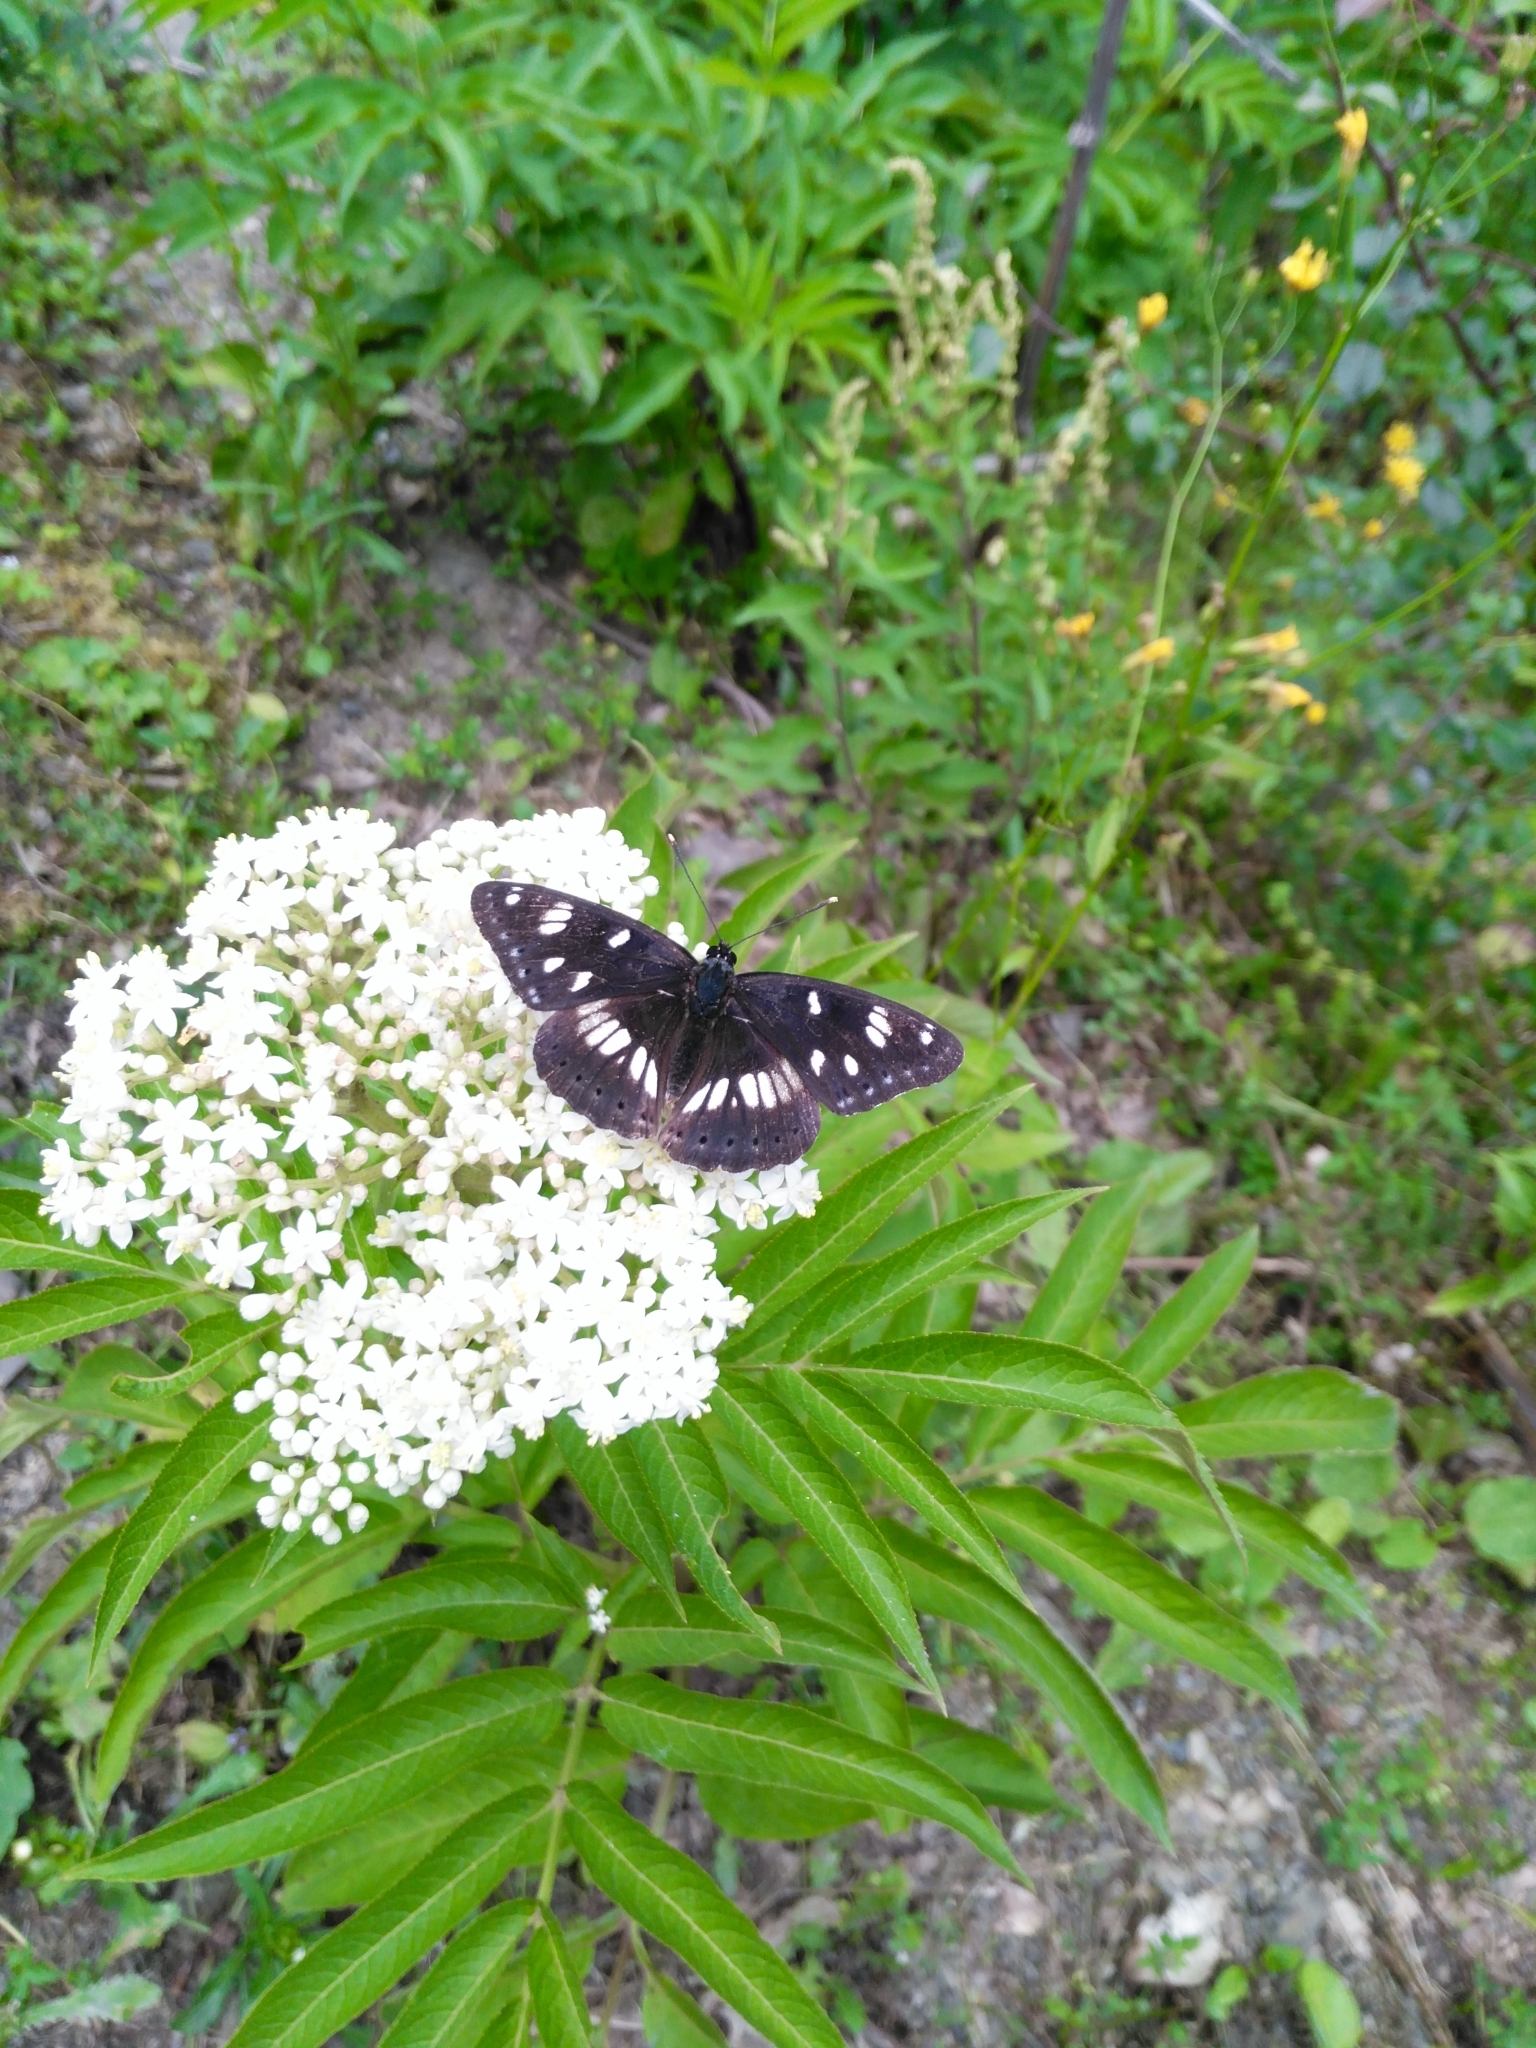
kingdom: Animalia
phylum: Arthropoda
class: Insecta
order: Lepidoptera
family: Nymphalidae
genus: Limenitis
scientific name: Limenitis reducta
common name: Southern white admiral
